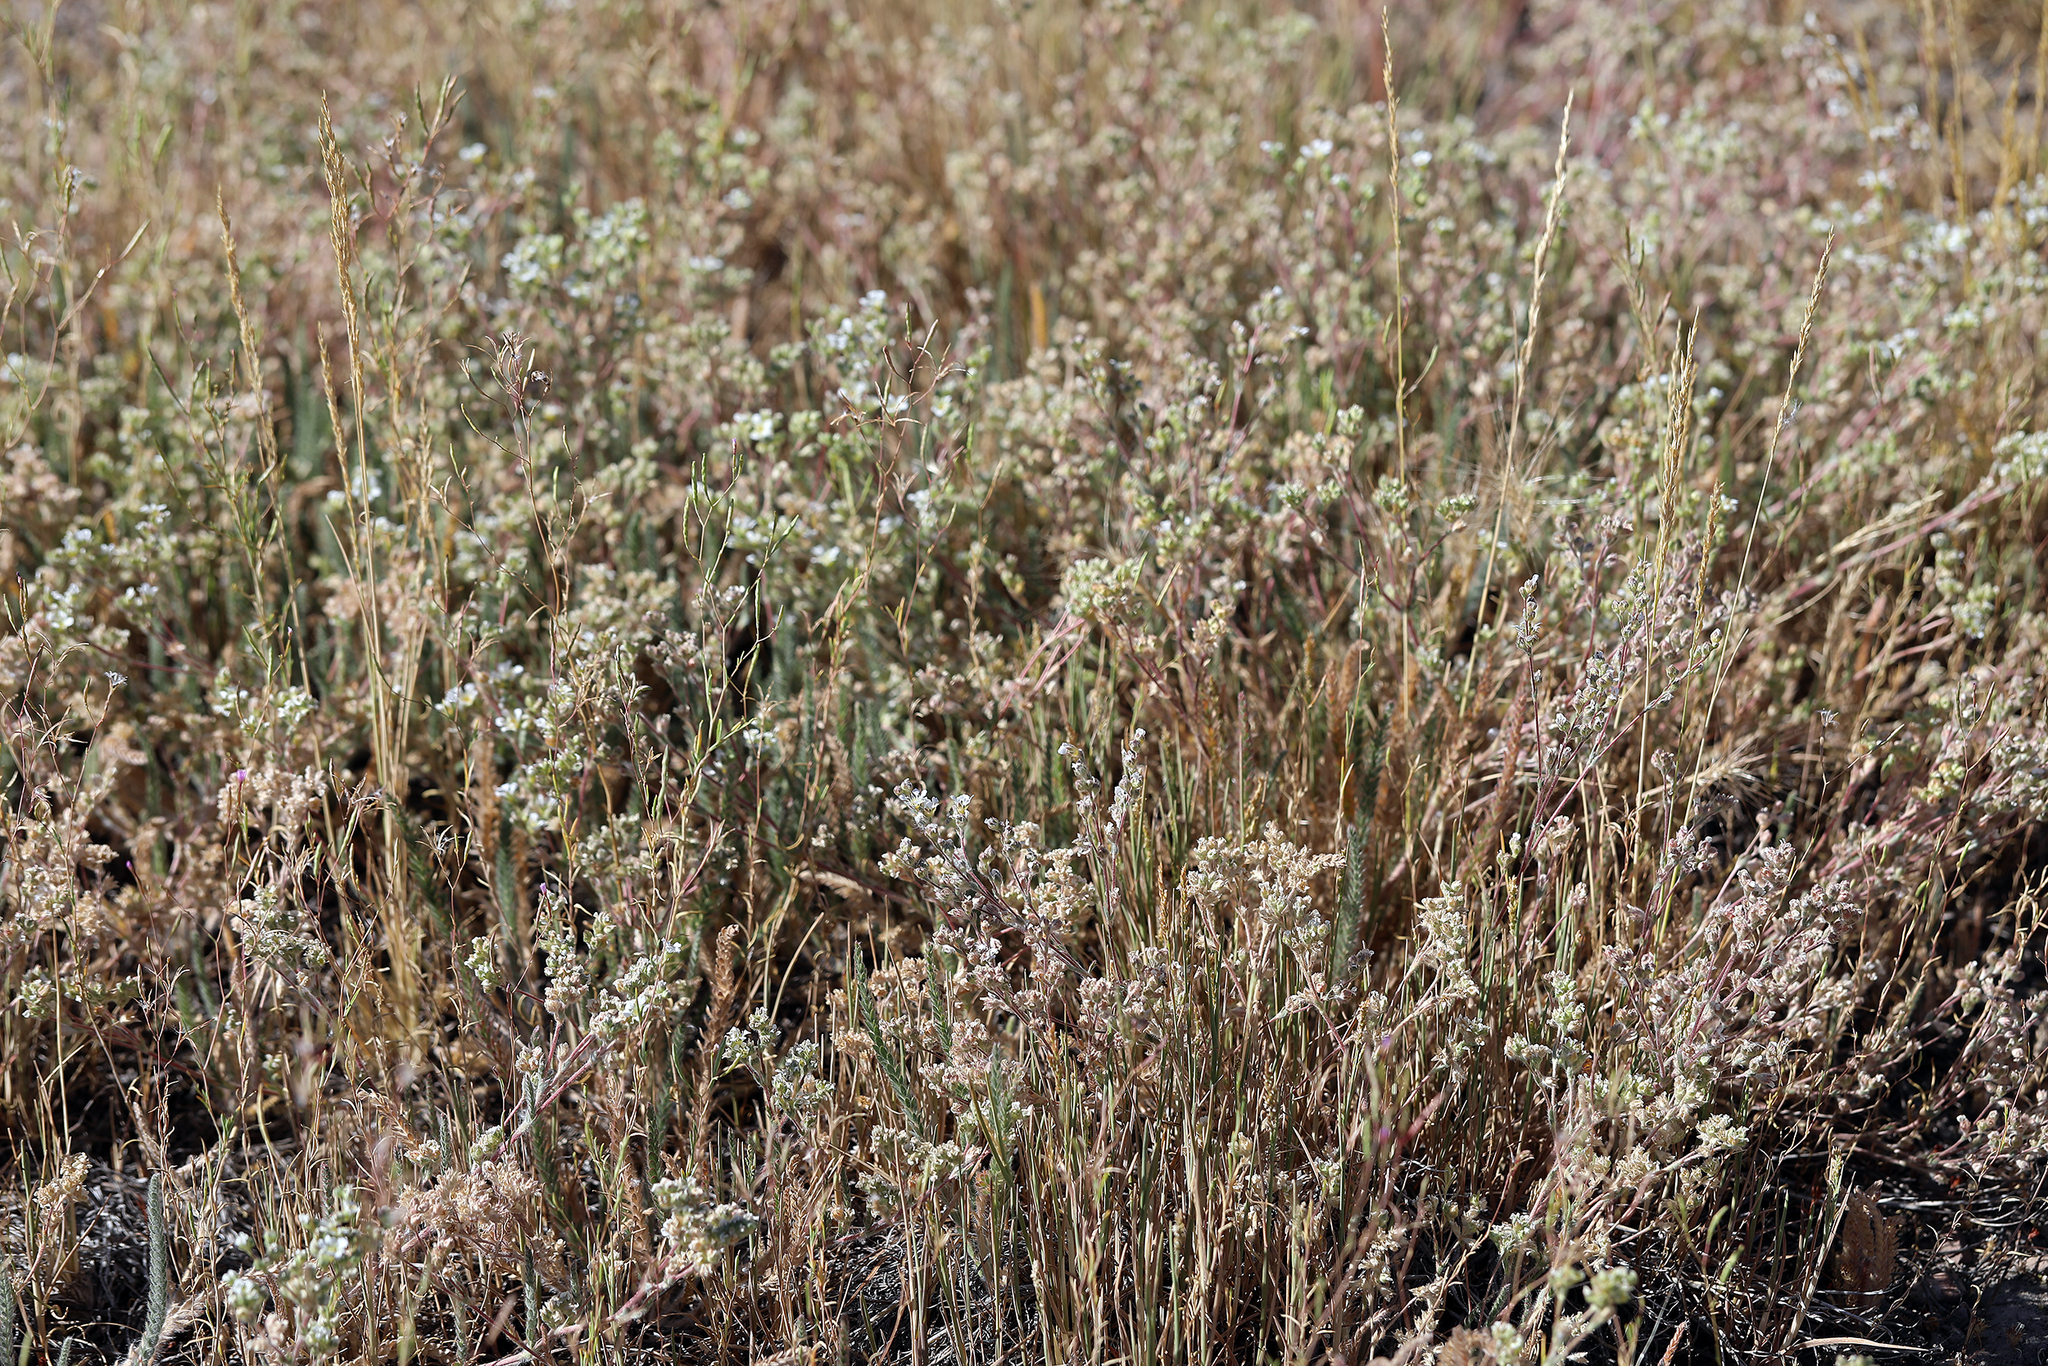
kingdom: Plantae
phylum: Tracheophyta
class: Magnoliopsida
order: Rosales
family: Rosaceae
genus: Potentilla
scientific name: Potentilla sericoleuca
